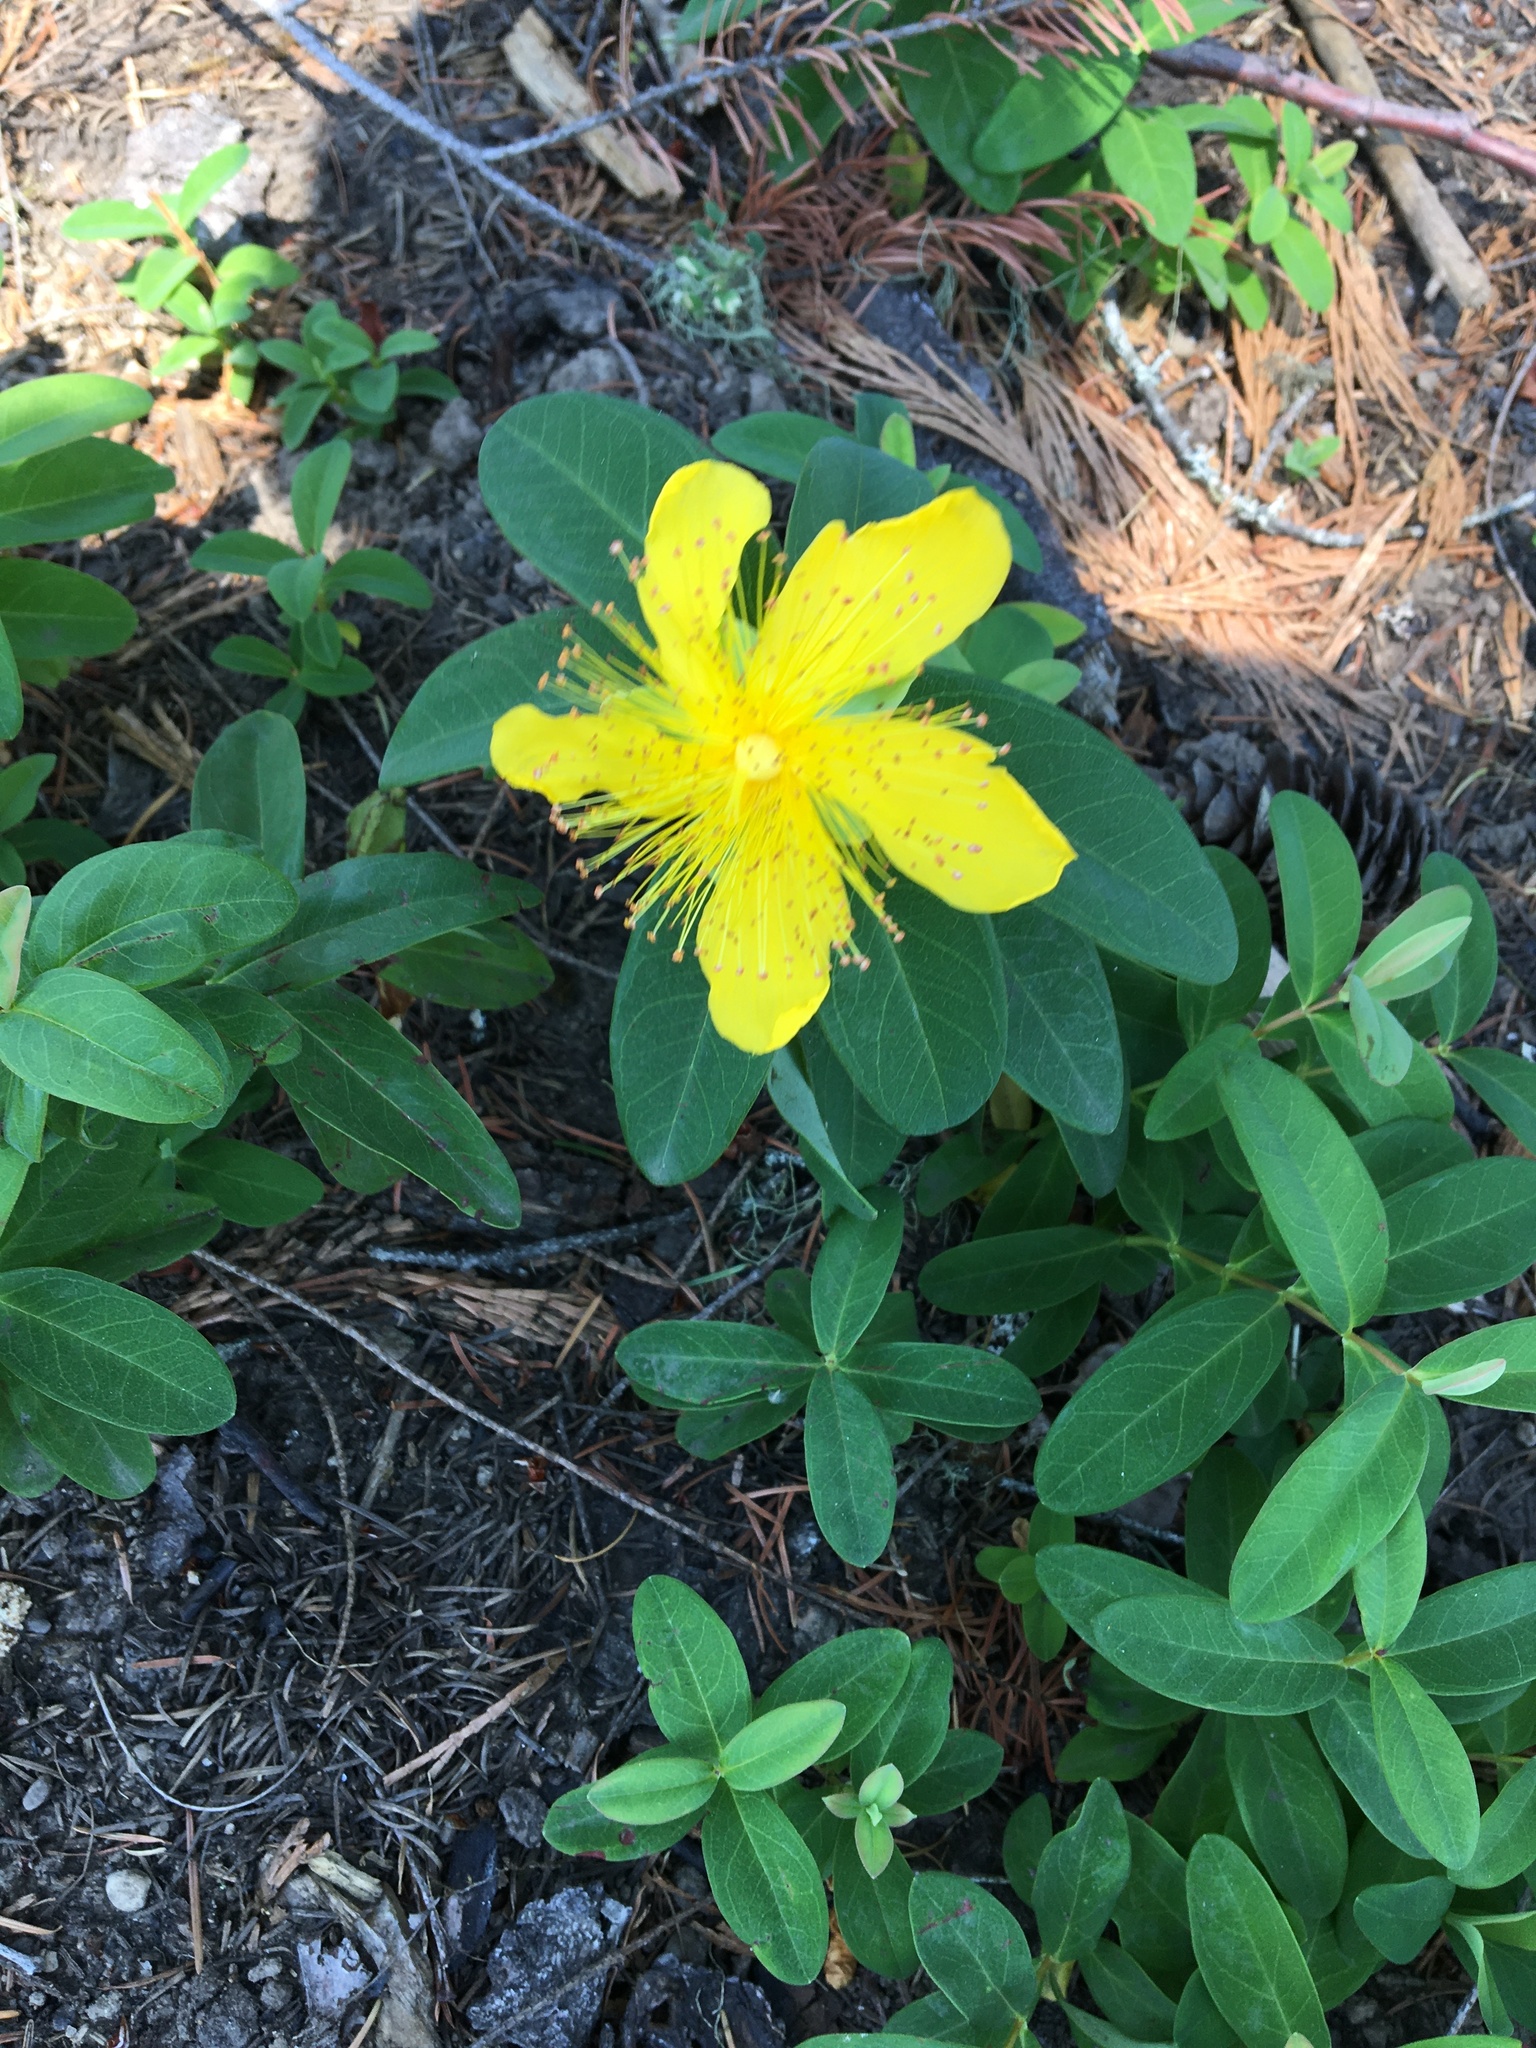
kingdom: Plantae
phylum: Tracheophyta
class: Magnoliopsida
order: Malpighiales
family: Hypericaceae
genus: Hypericum
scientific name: Hypericum calycinum
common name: Rose-of-sharon
